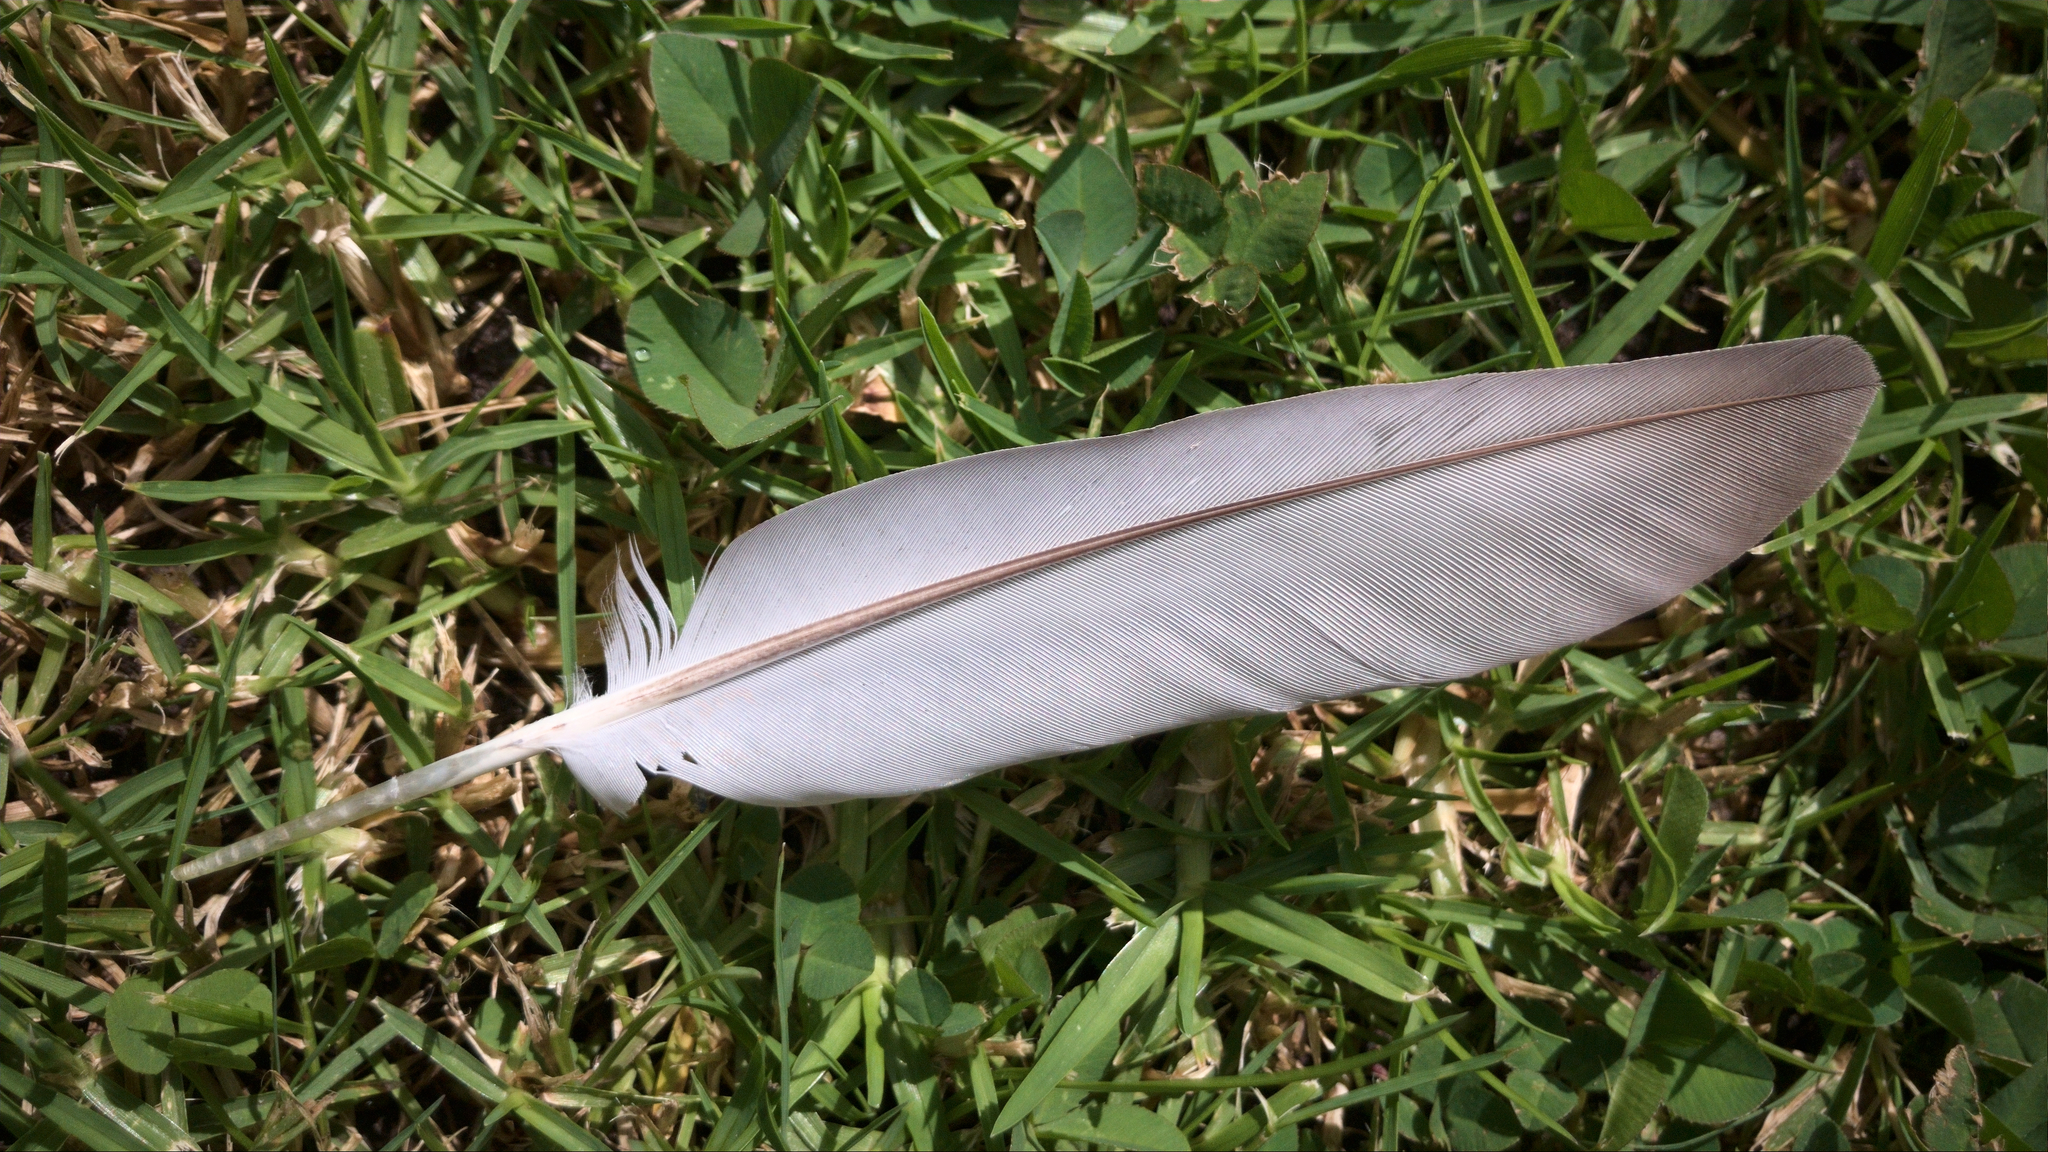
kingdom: Animalia
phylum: Chordata
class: Aves
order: Columbiformes
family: Columbidae
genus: Columba
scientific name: Columba livia
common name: Rock pigeon
